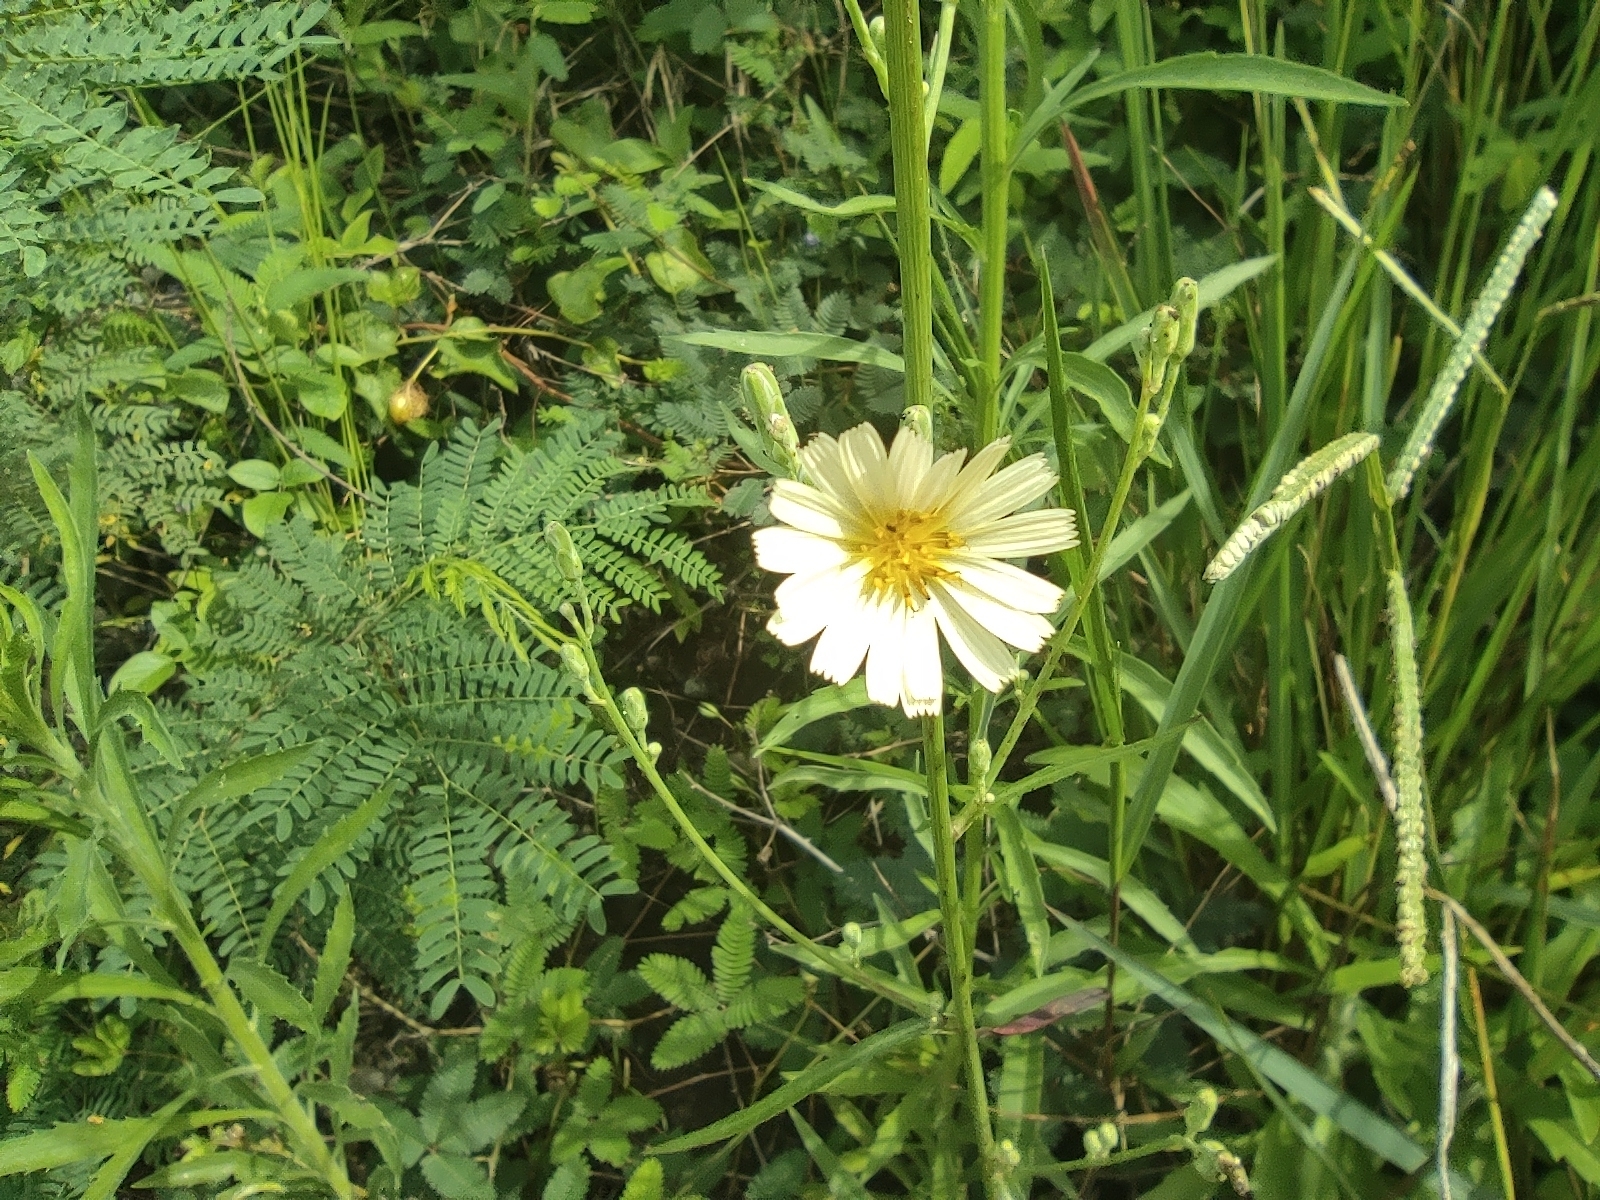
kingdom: Plantae
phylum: Tracheophyta
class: Magnoliopsida
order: Asterales
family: Asteraceae
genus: Lactuca
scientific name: Lactuca indica
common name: Wild lettuce
